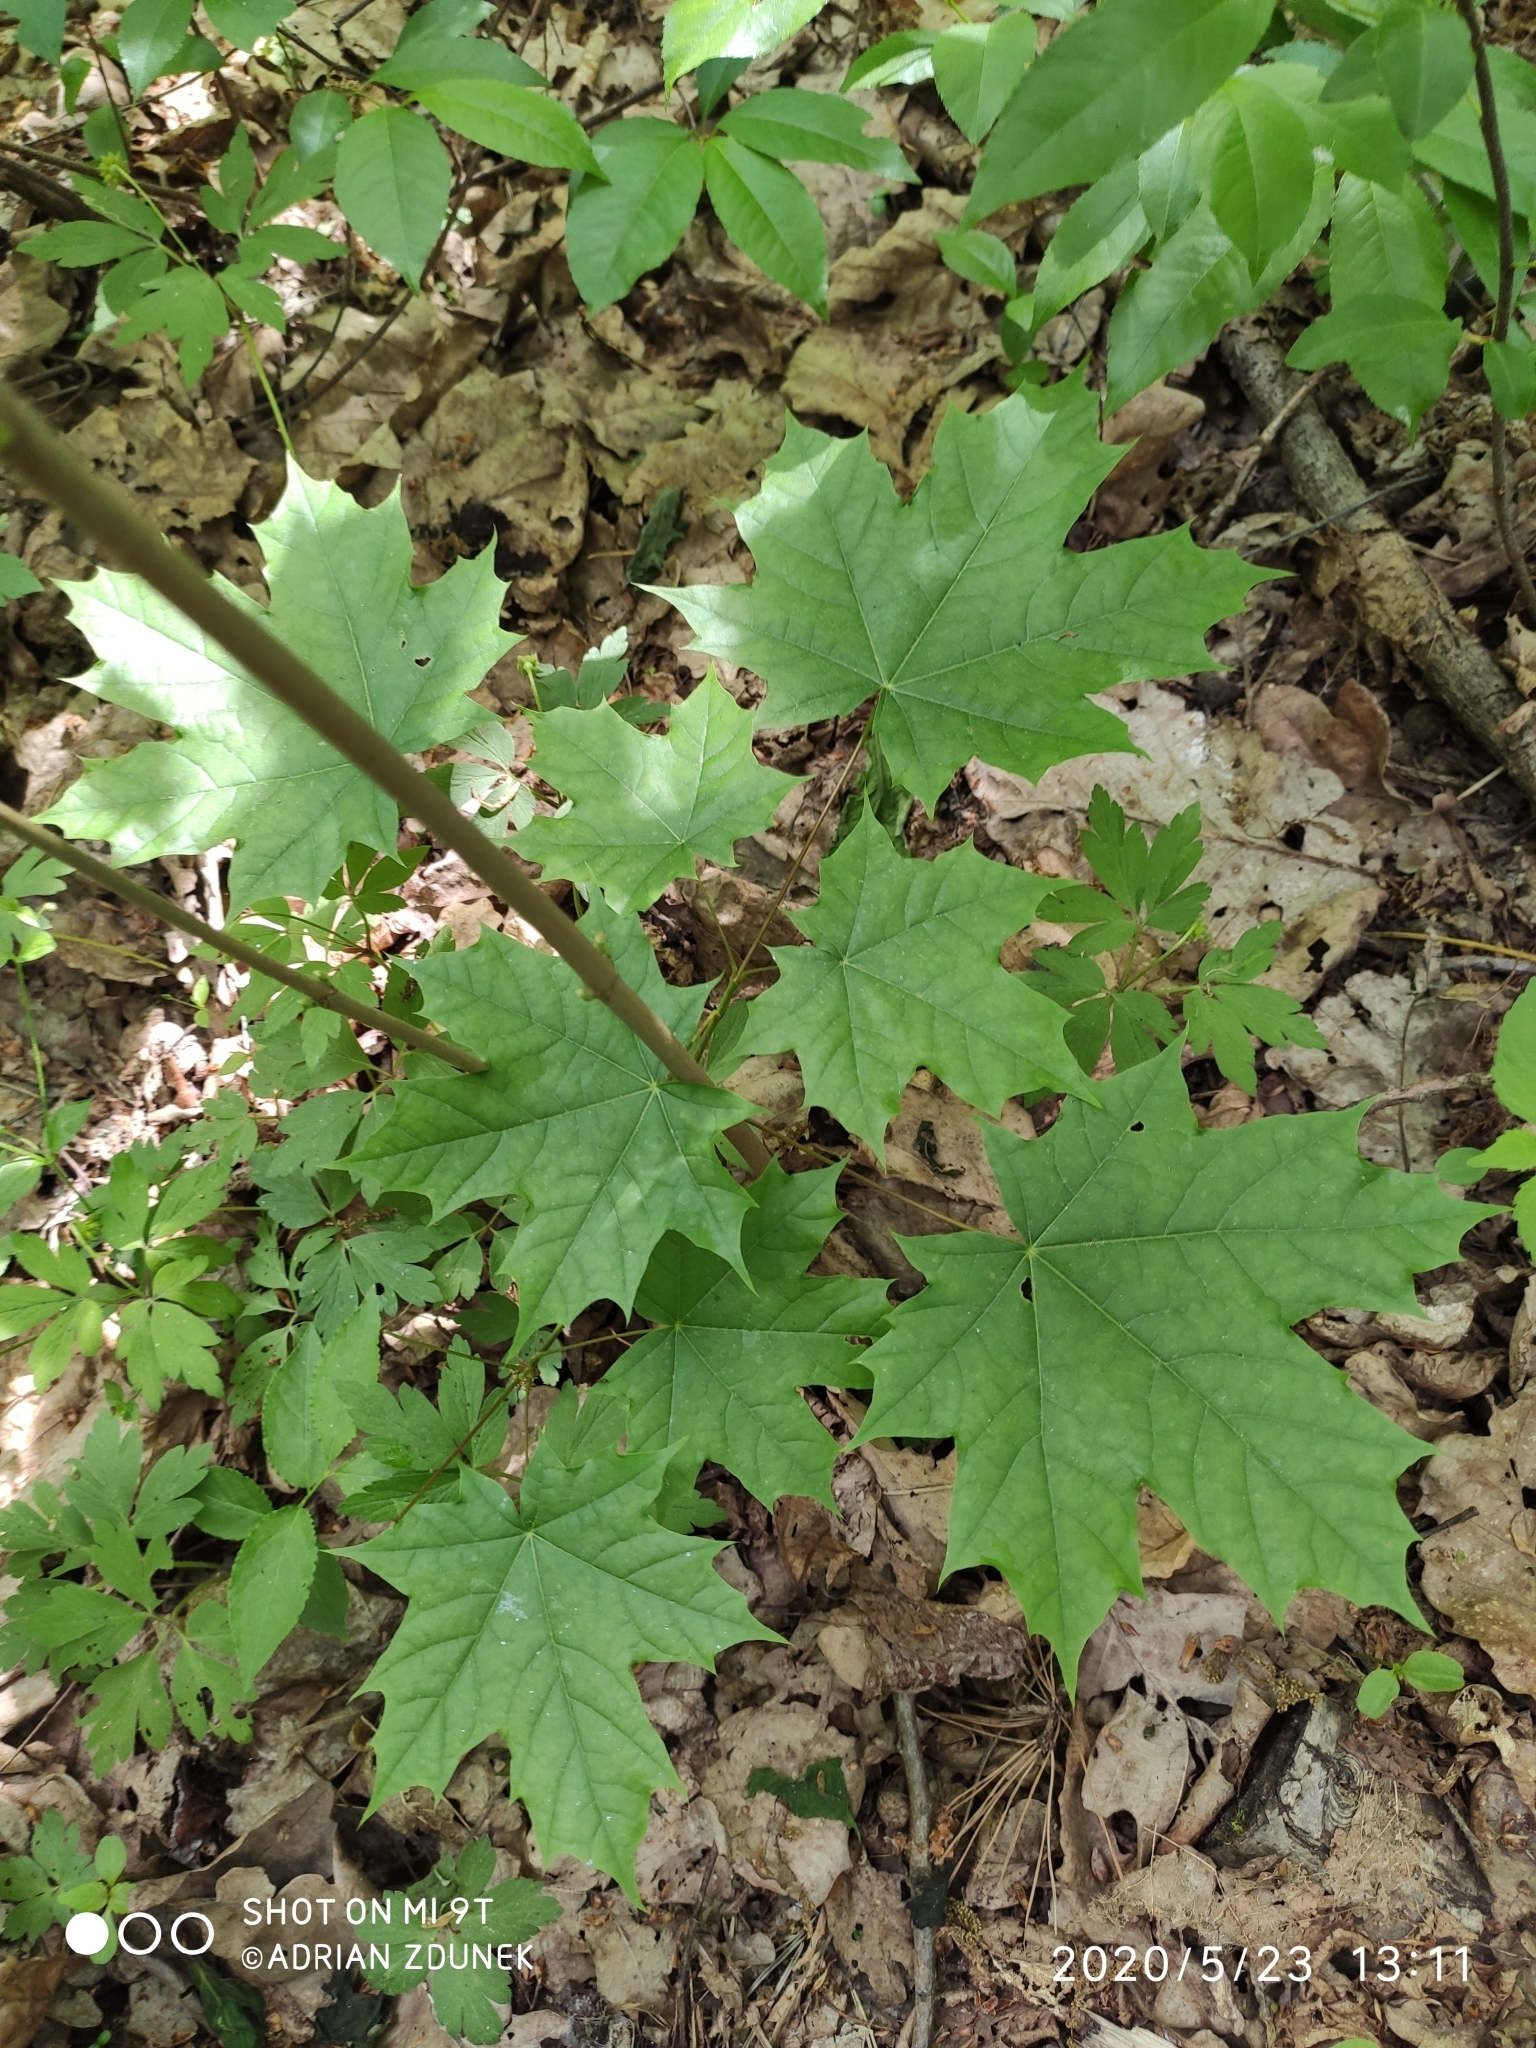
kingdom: Plantae
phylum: Tracheophyta
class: Magnoliopsida
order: Sapindales
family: Sapindaceae
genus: Acer
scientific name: Acer platanoides
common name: Norway maple
